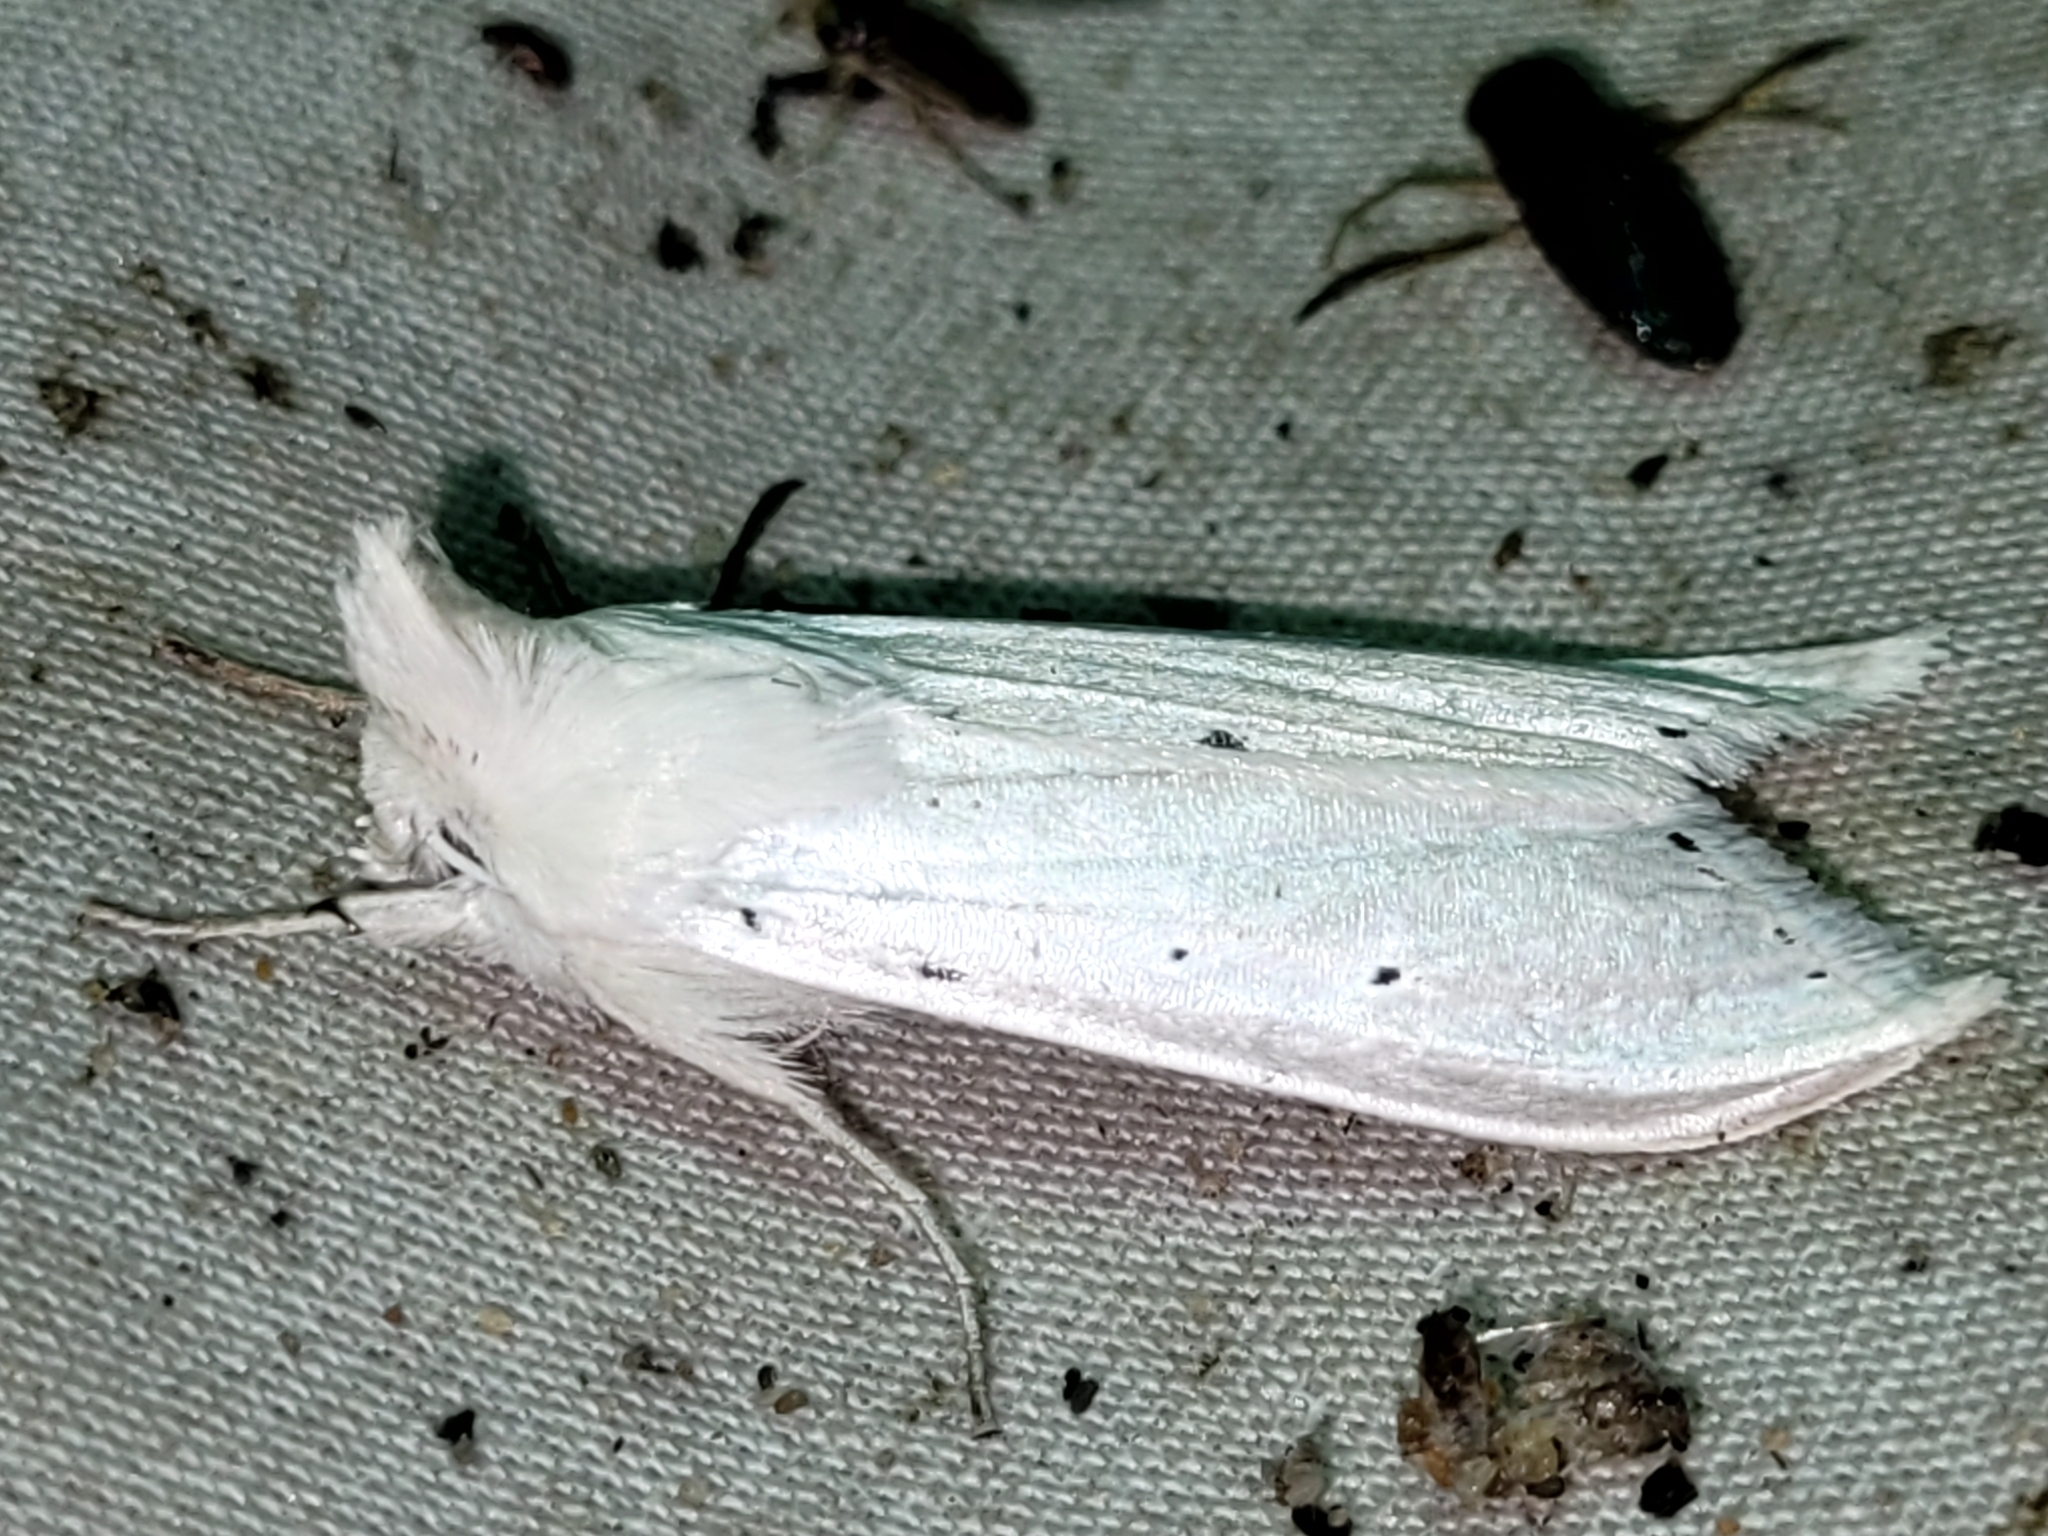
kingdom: Animalia
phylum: Arthropoda
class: Insecta
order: Lepidoptera
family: Noctuidae
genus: Cucullia
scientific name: Cucullia luna
